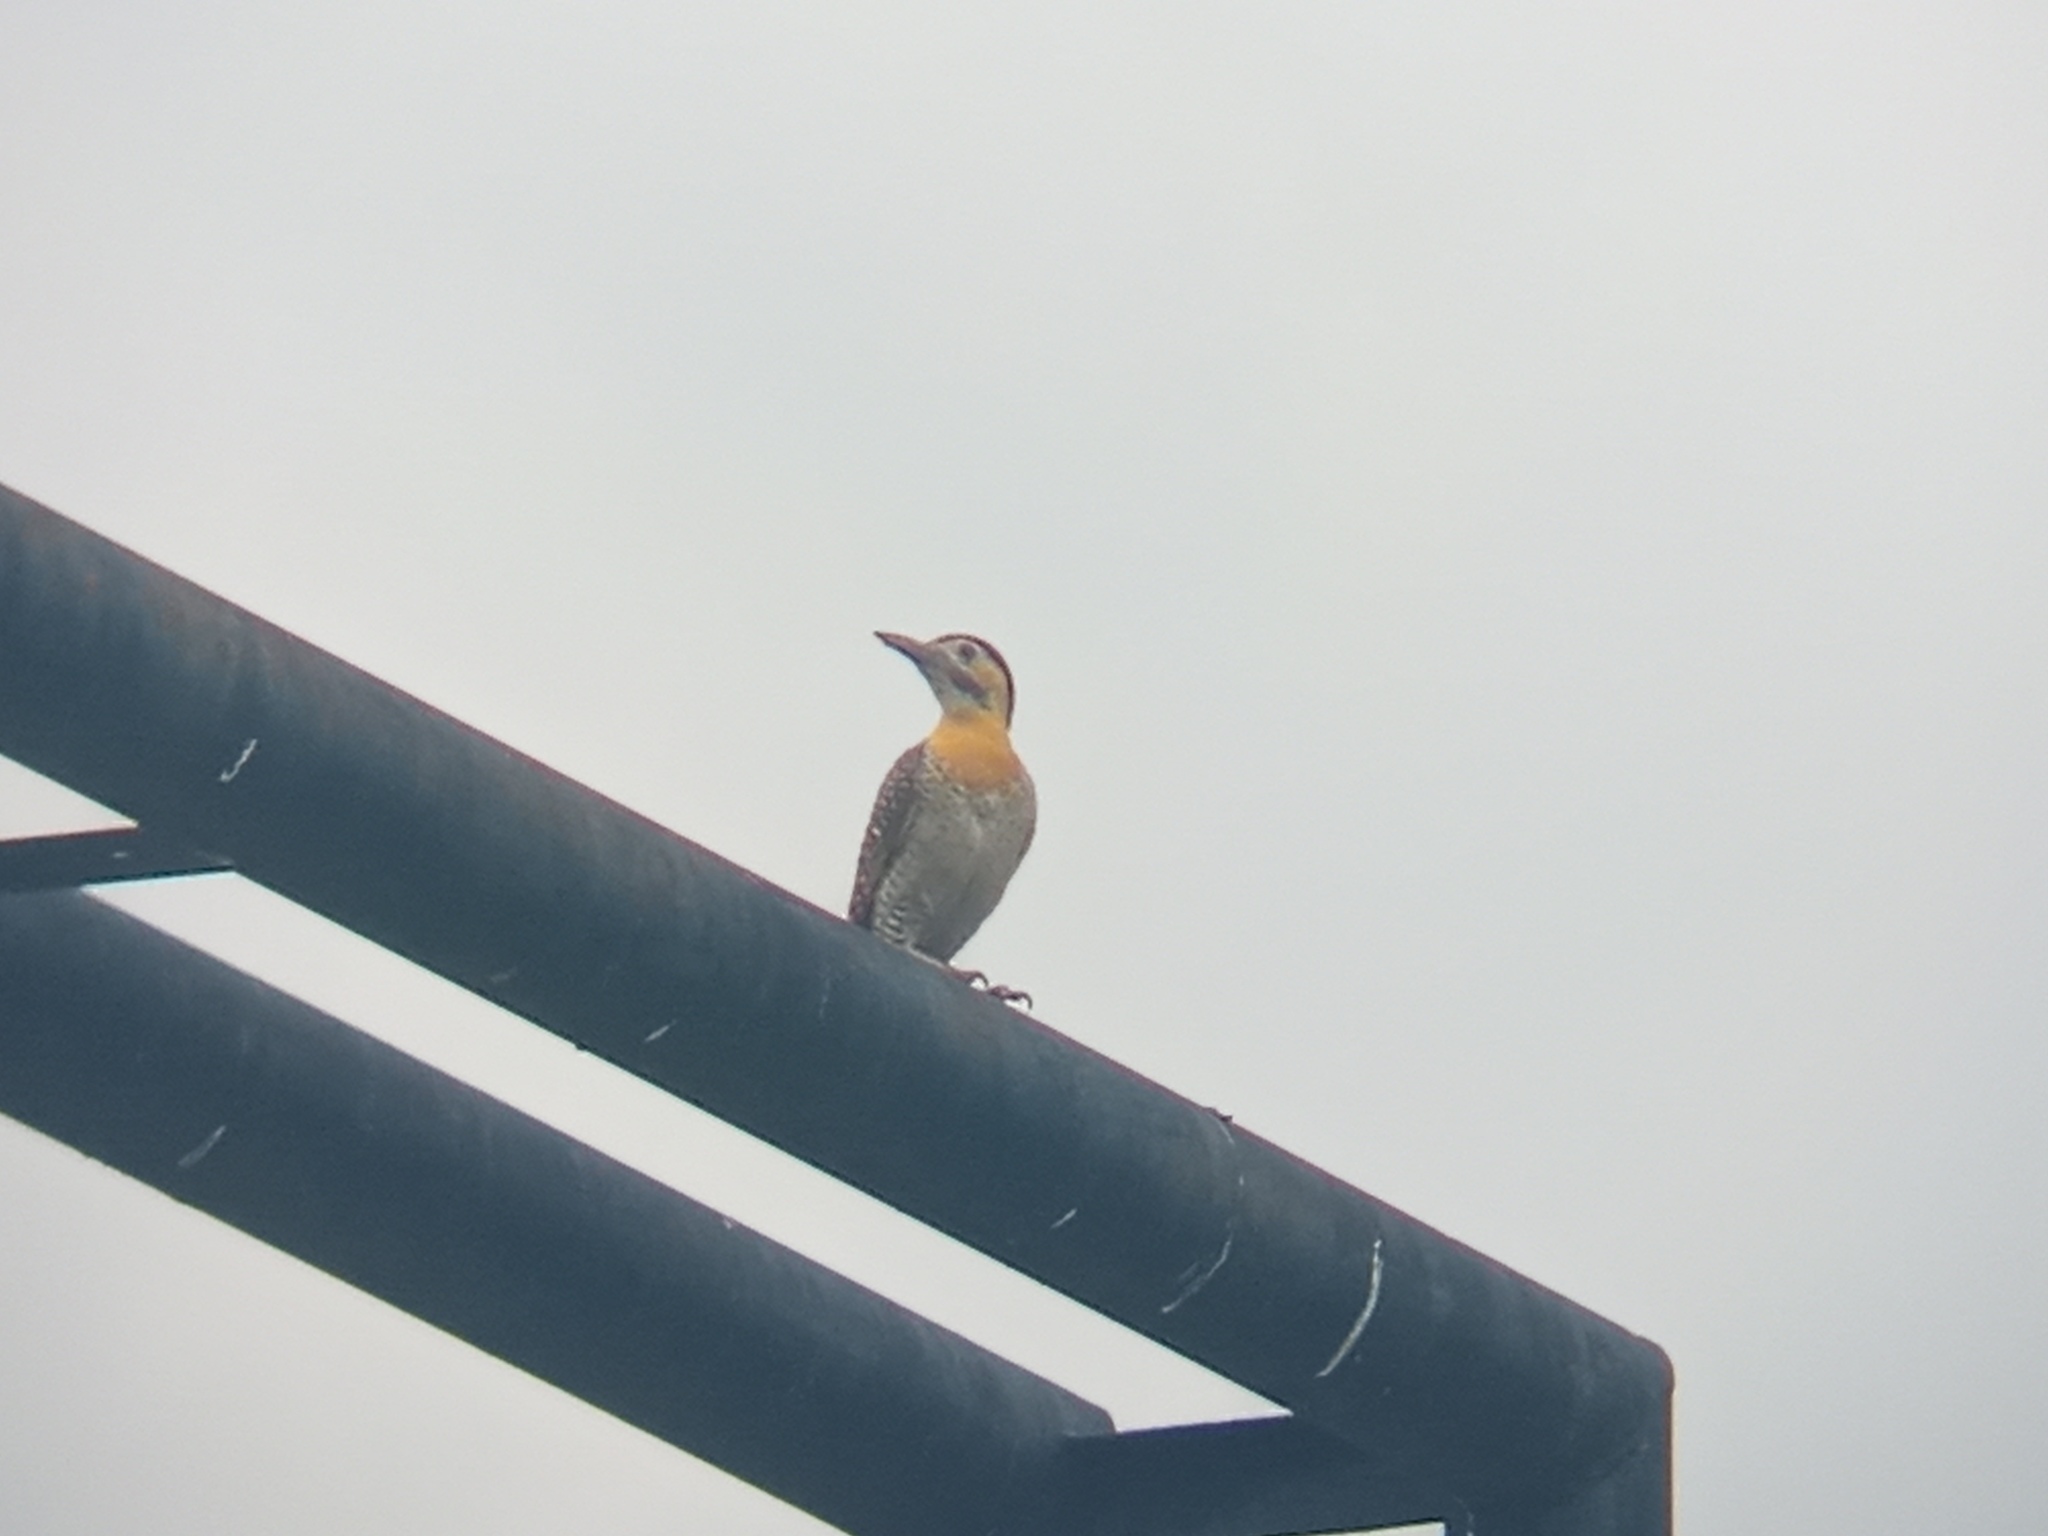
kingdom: Animalia
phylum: Chordata
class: Aves
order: Piciformes
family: Picidae
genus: Colaptes
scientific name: Colaptes campestris
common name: Campo flicker
